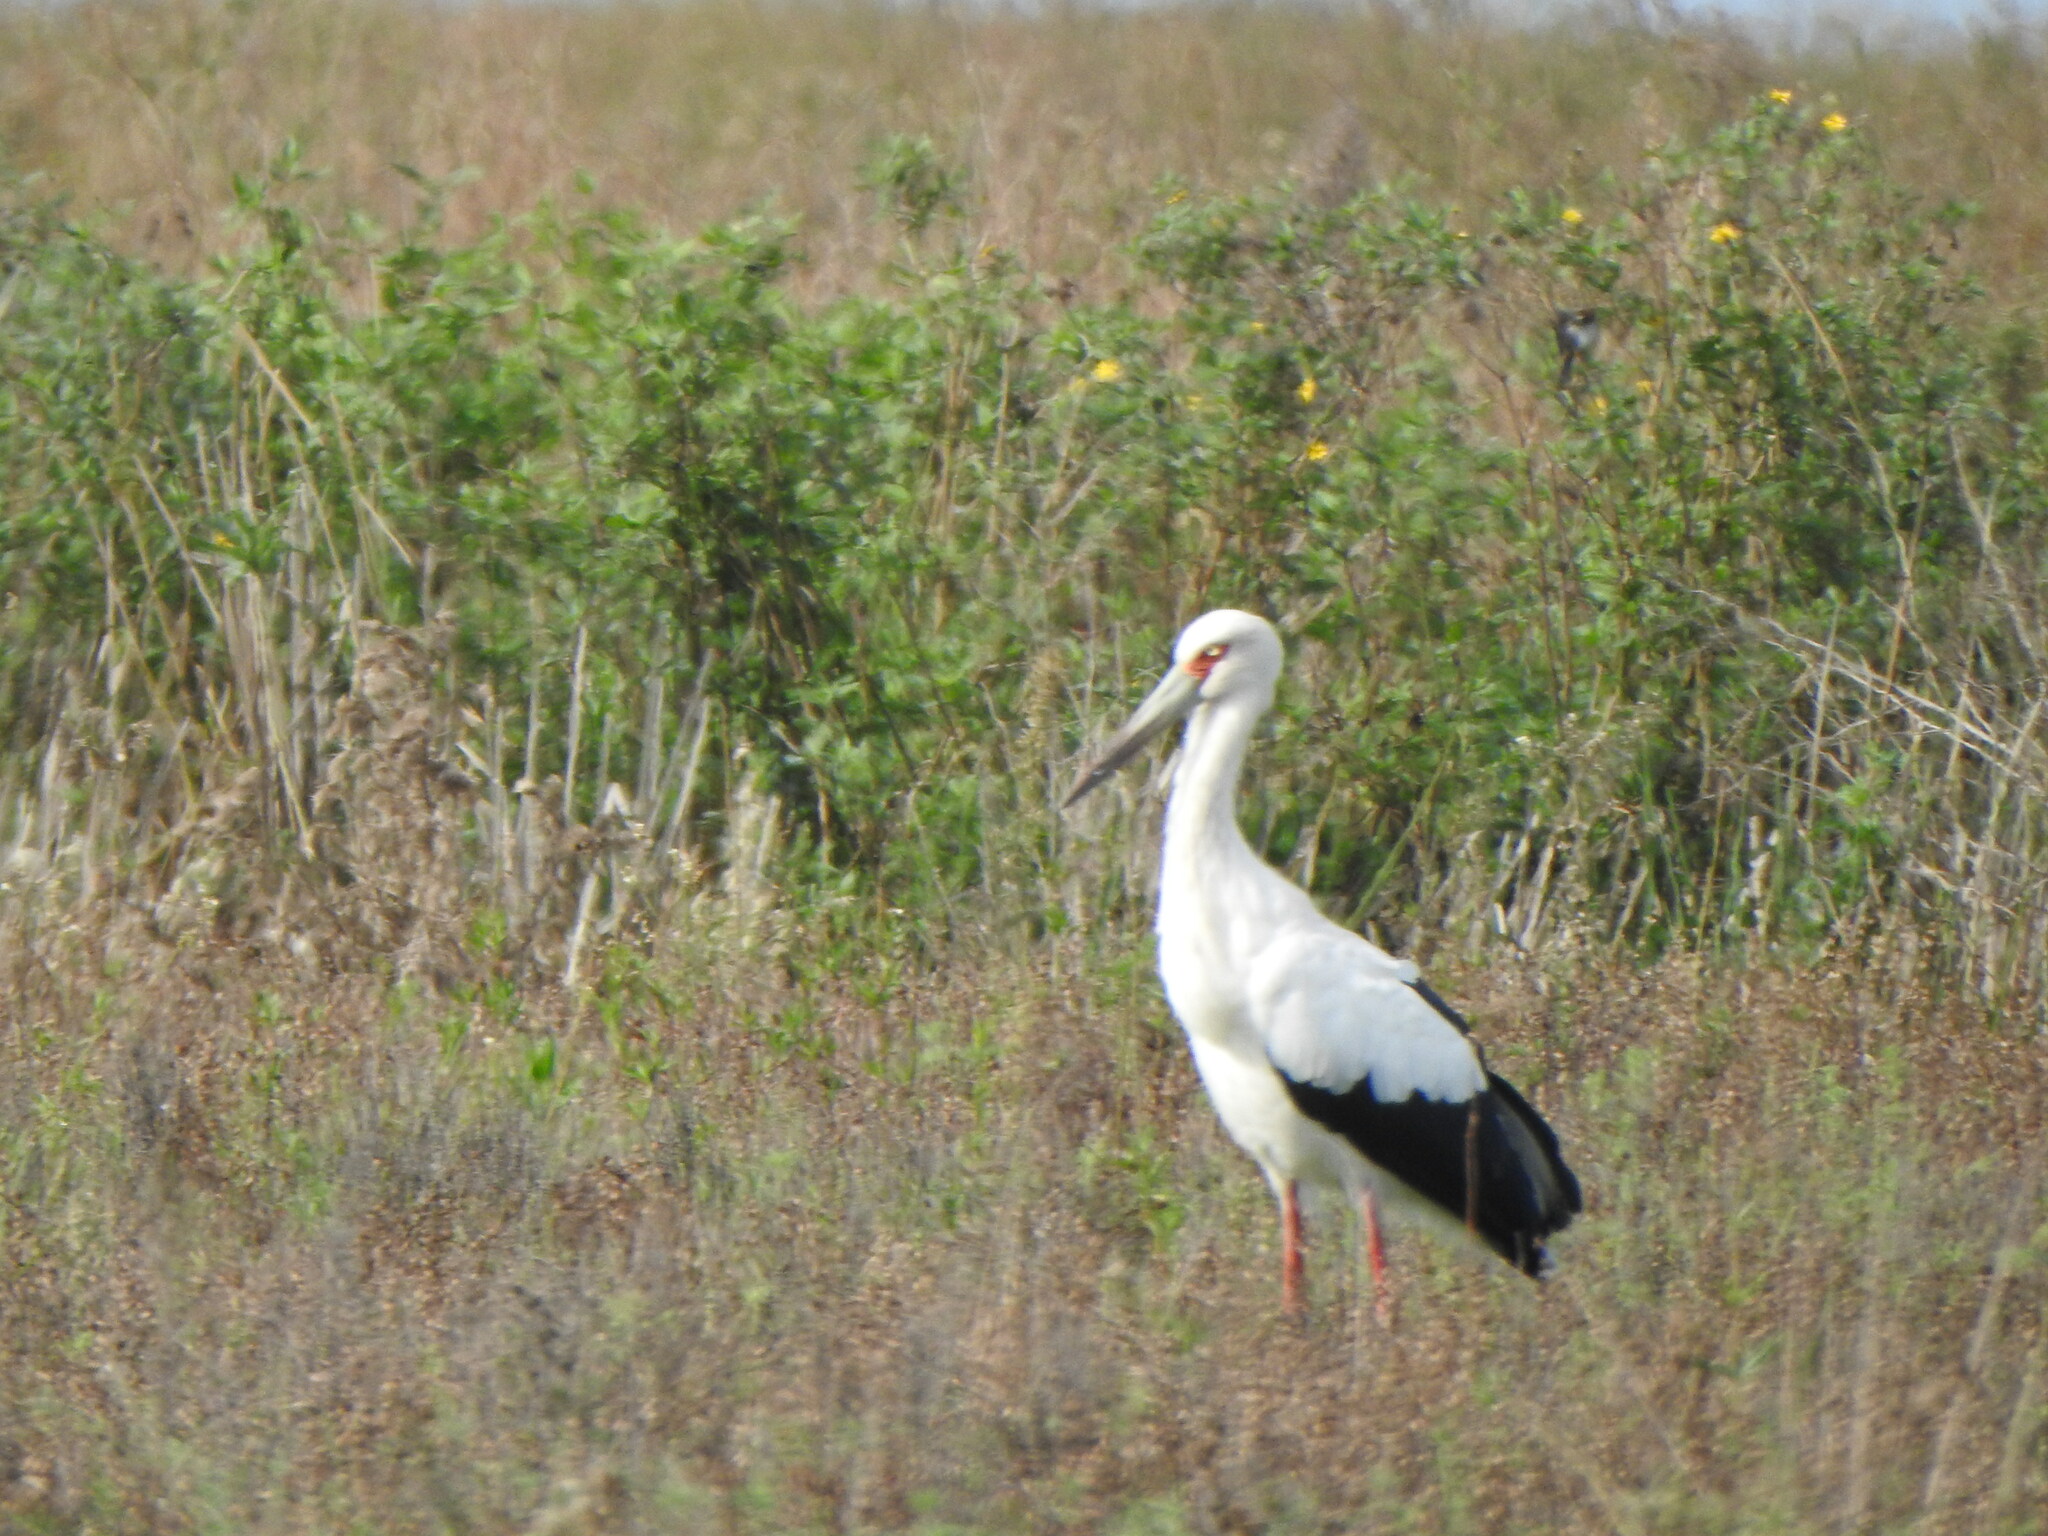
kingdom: Animalia
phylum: Chordata
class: Aves
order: Ciconiiformes
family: Ciconiidae
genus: Ciconia
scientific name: Ciconia maguari
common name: Maguari stork
